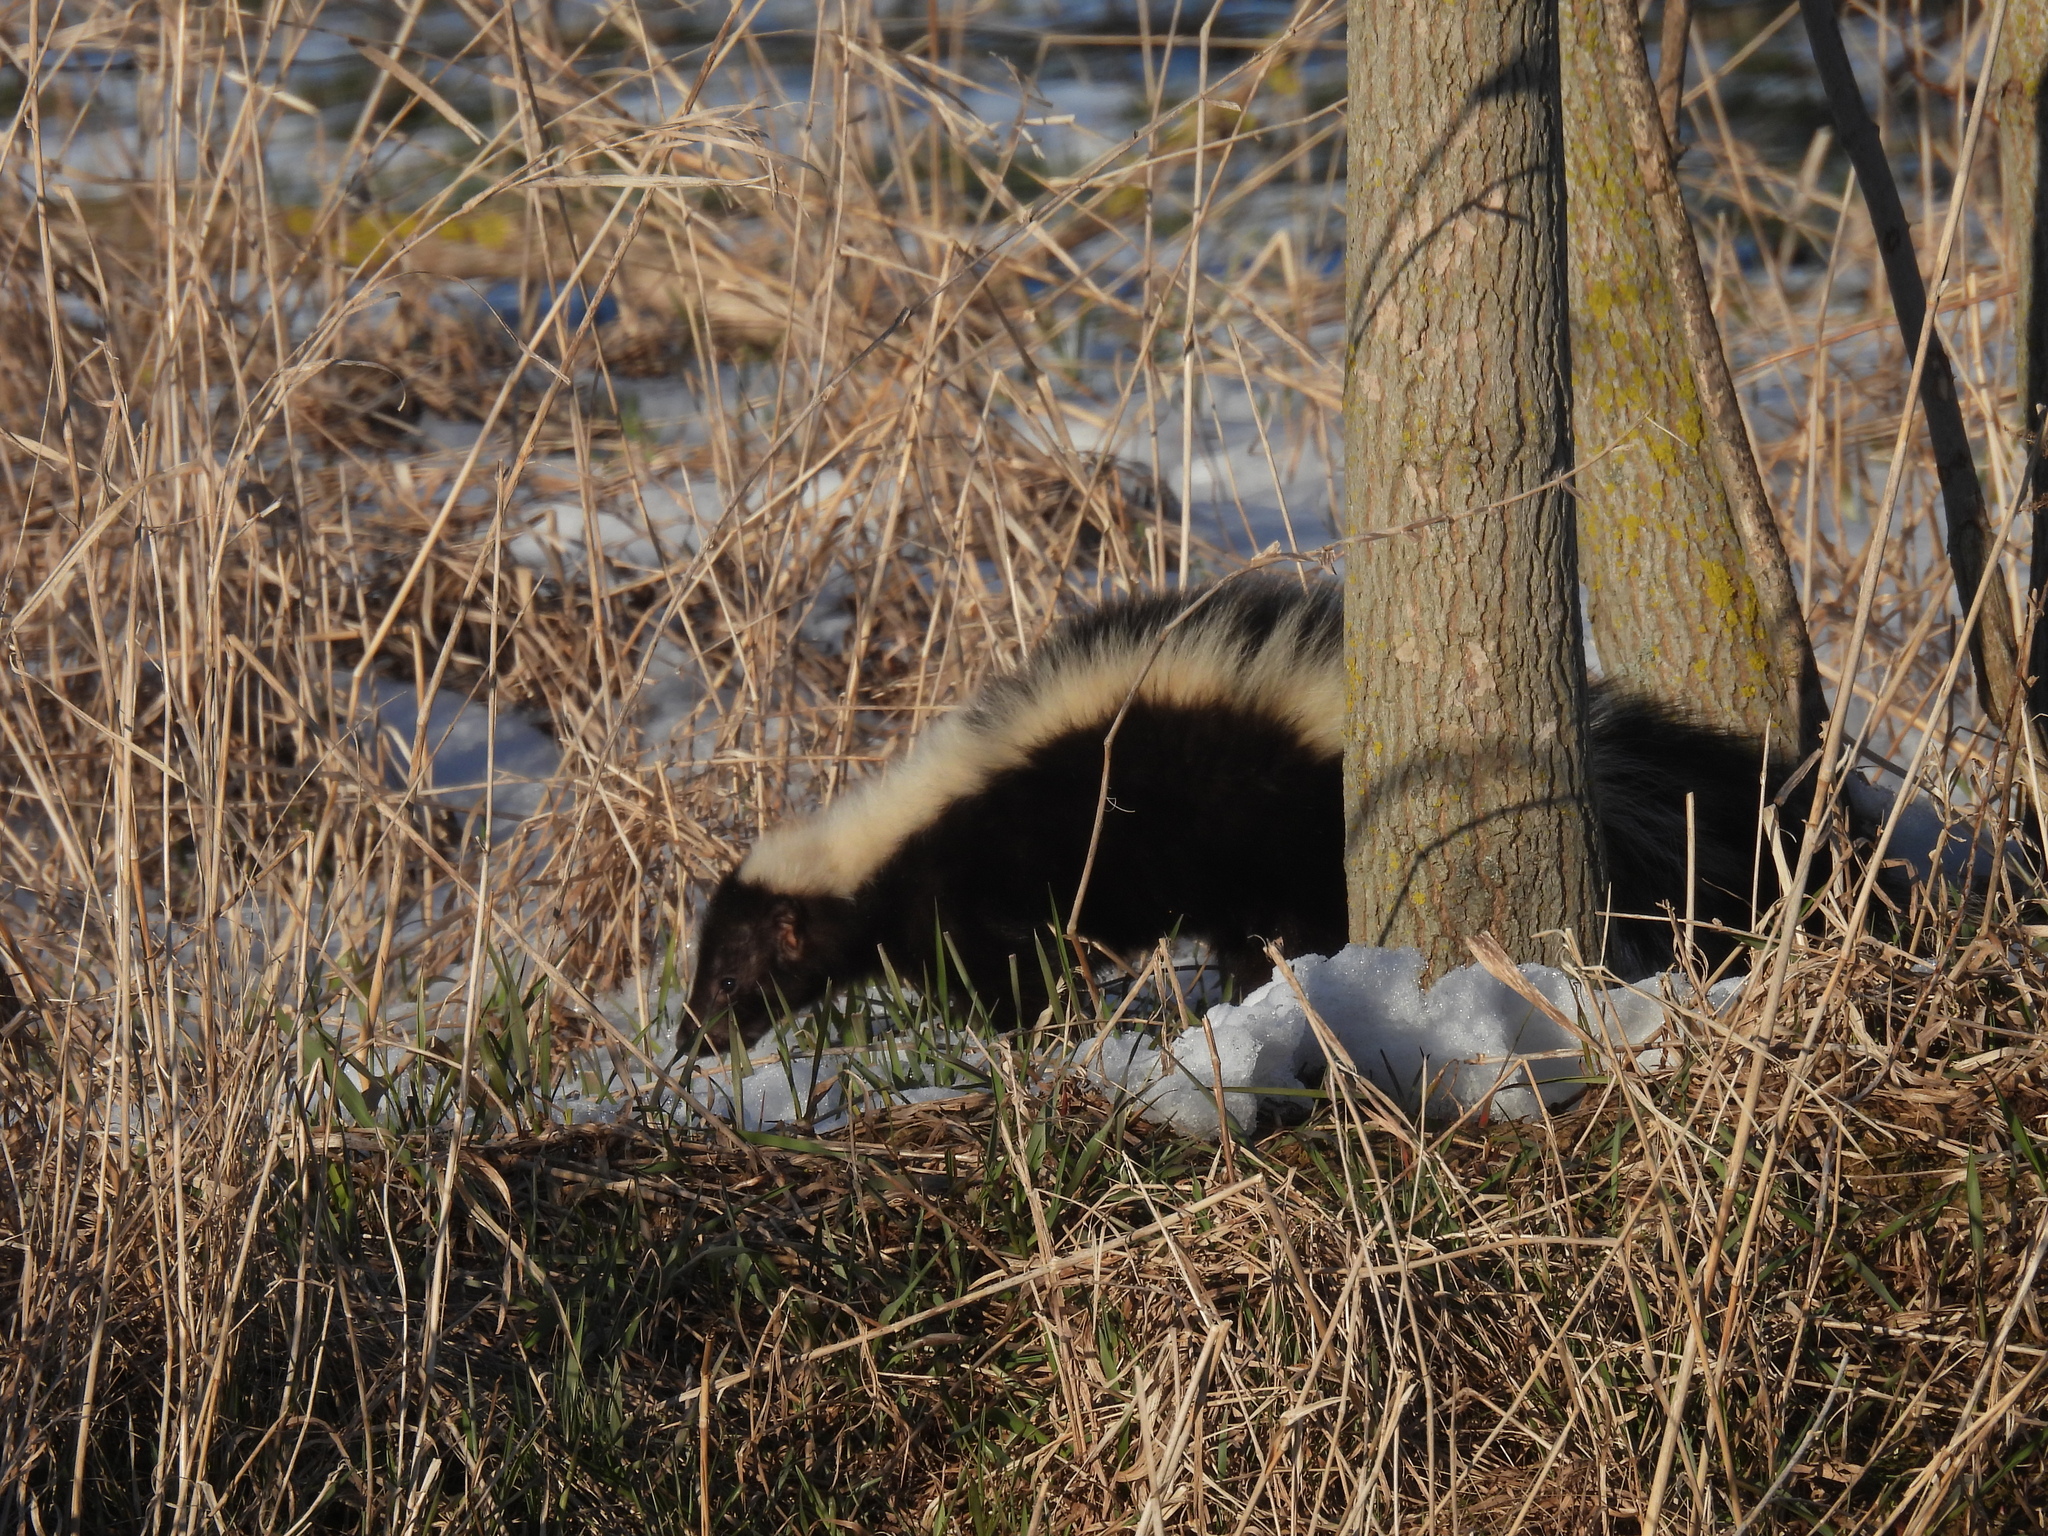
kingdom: Animalia
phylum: Chordata
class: Mammalia
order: Carnivora
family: Mephitidae
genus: Mephitis
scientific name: Mephitis mephitis
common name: Striped skunk
